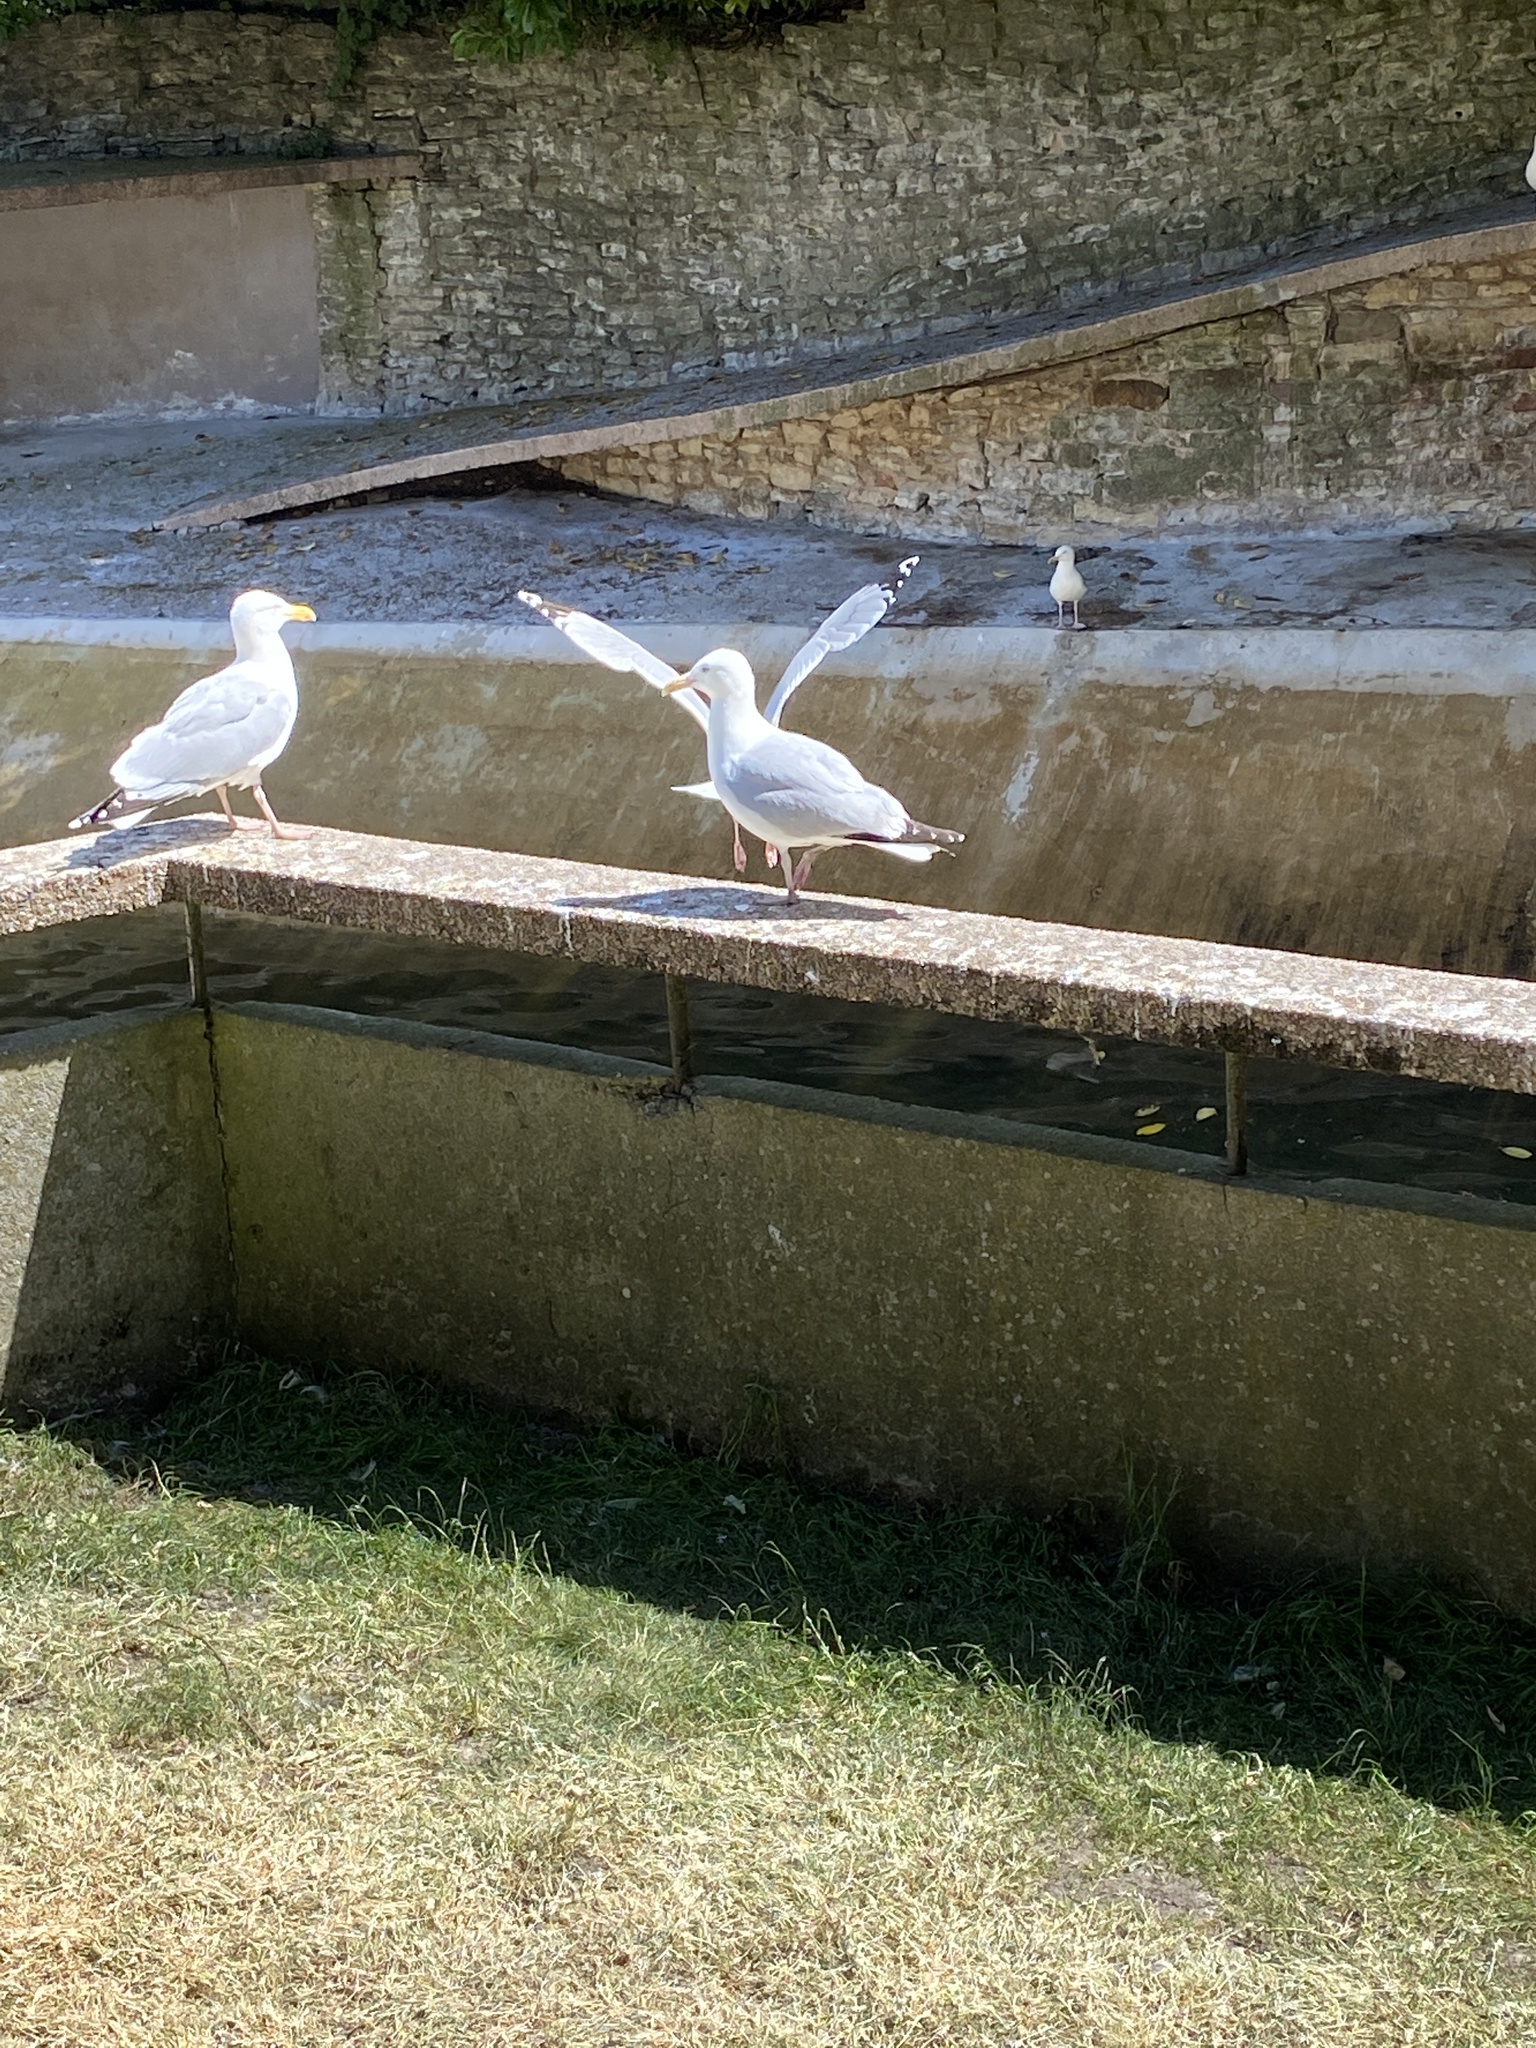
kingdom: Animalia
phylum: Chordata
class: Aves
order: Charadriiformes
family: Laridae
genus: Larus
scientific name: Larus argentatus
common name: Herring gull
